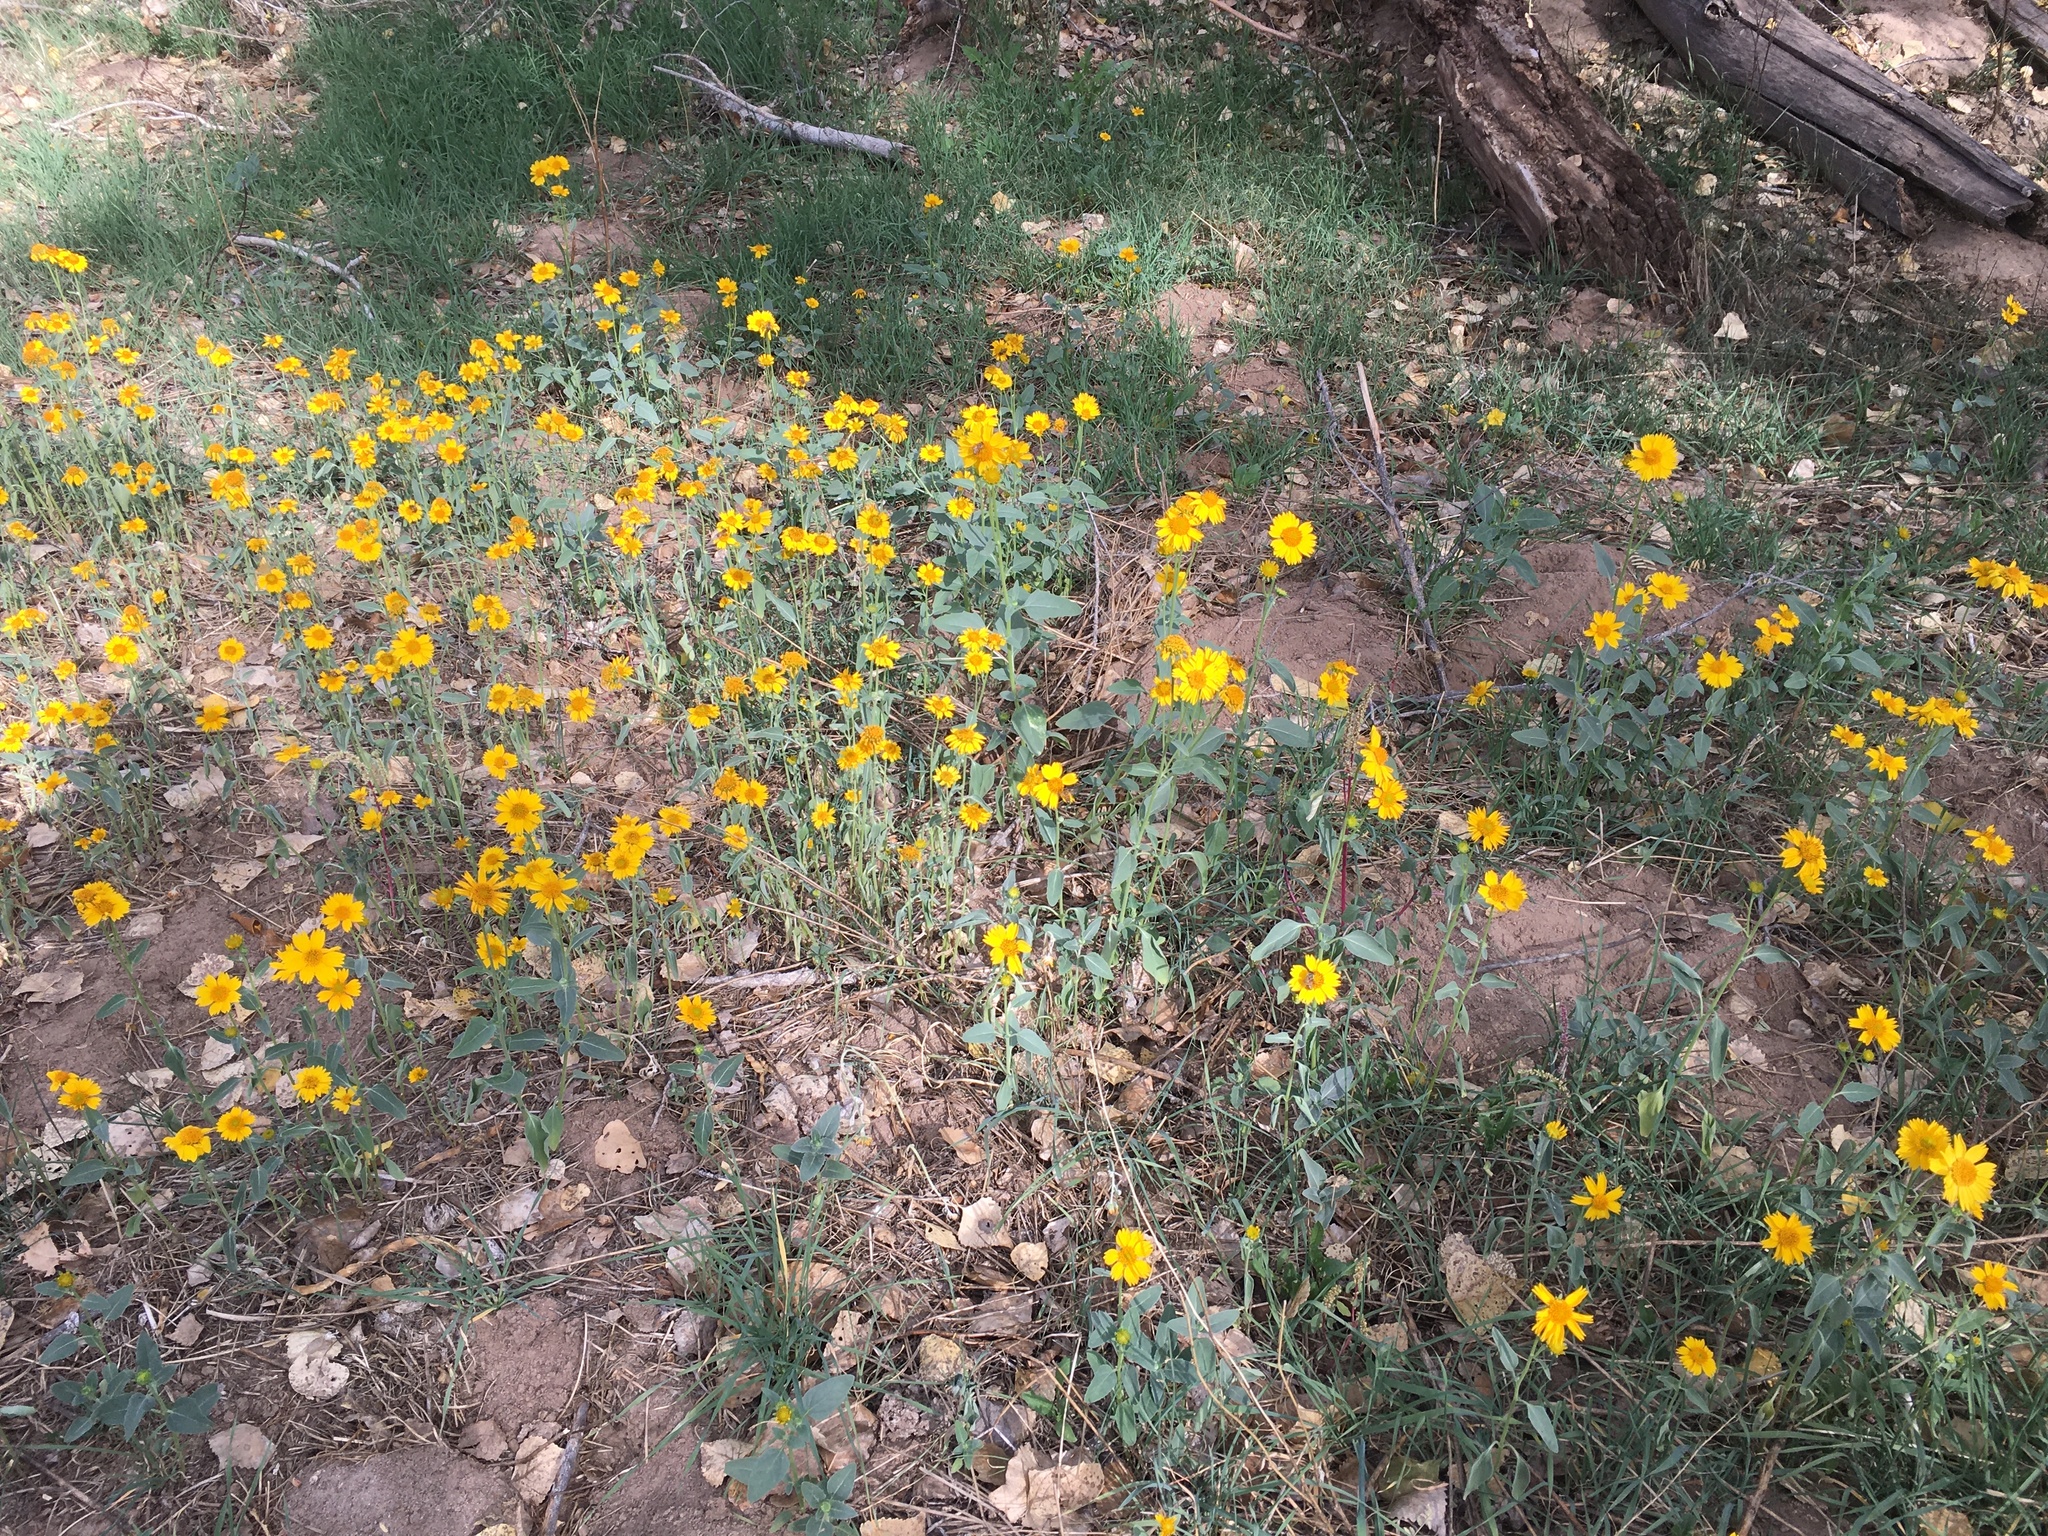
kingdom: Plantae
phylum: Tracheophyta
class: Magnoliopsida
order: Asterales
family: Asteraceae
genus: Verbesina
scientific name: Verbesina encelioides
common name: Golden crownbeard
